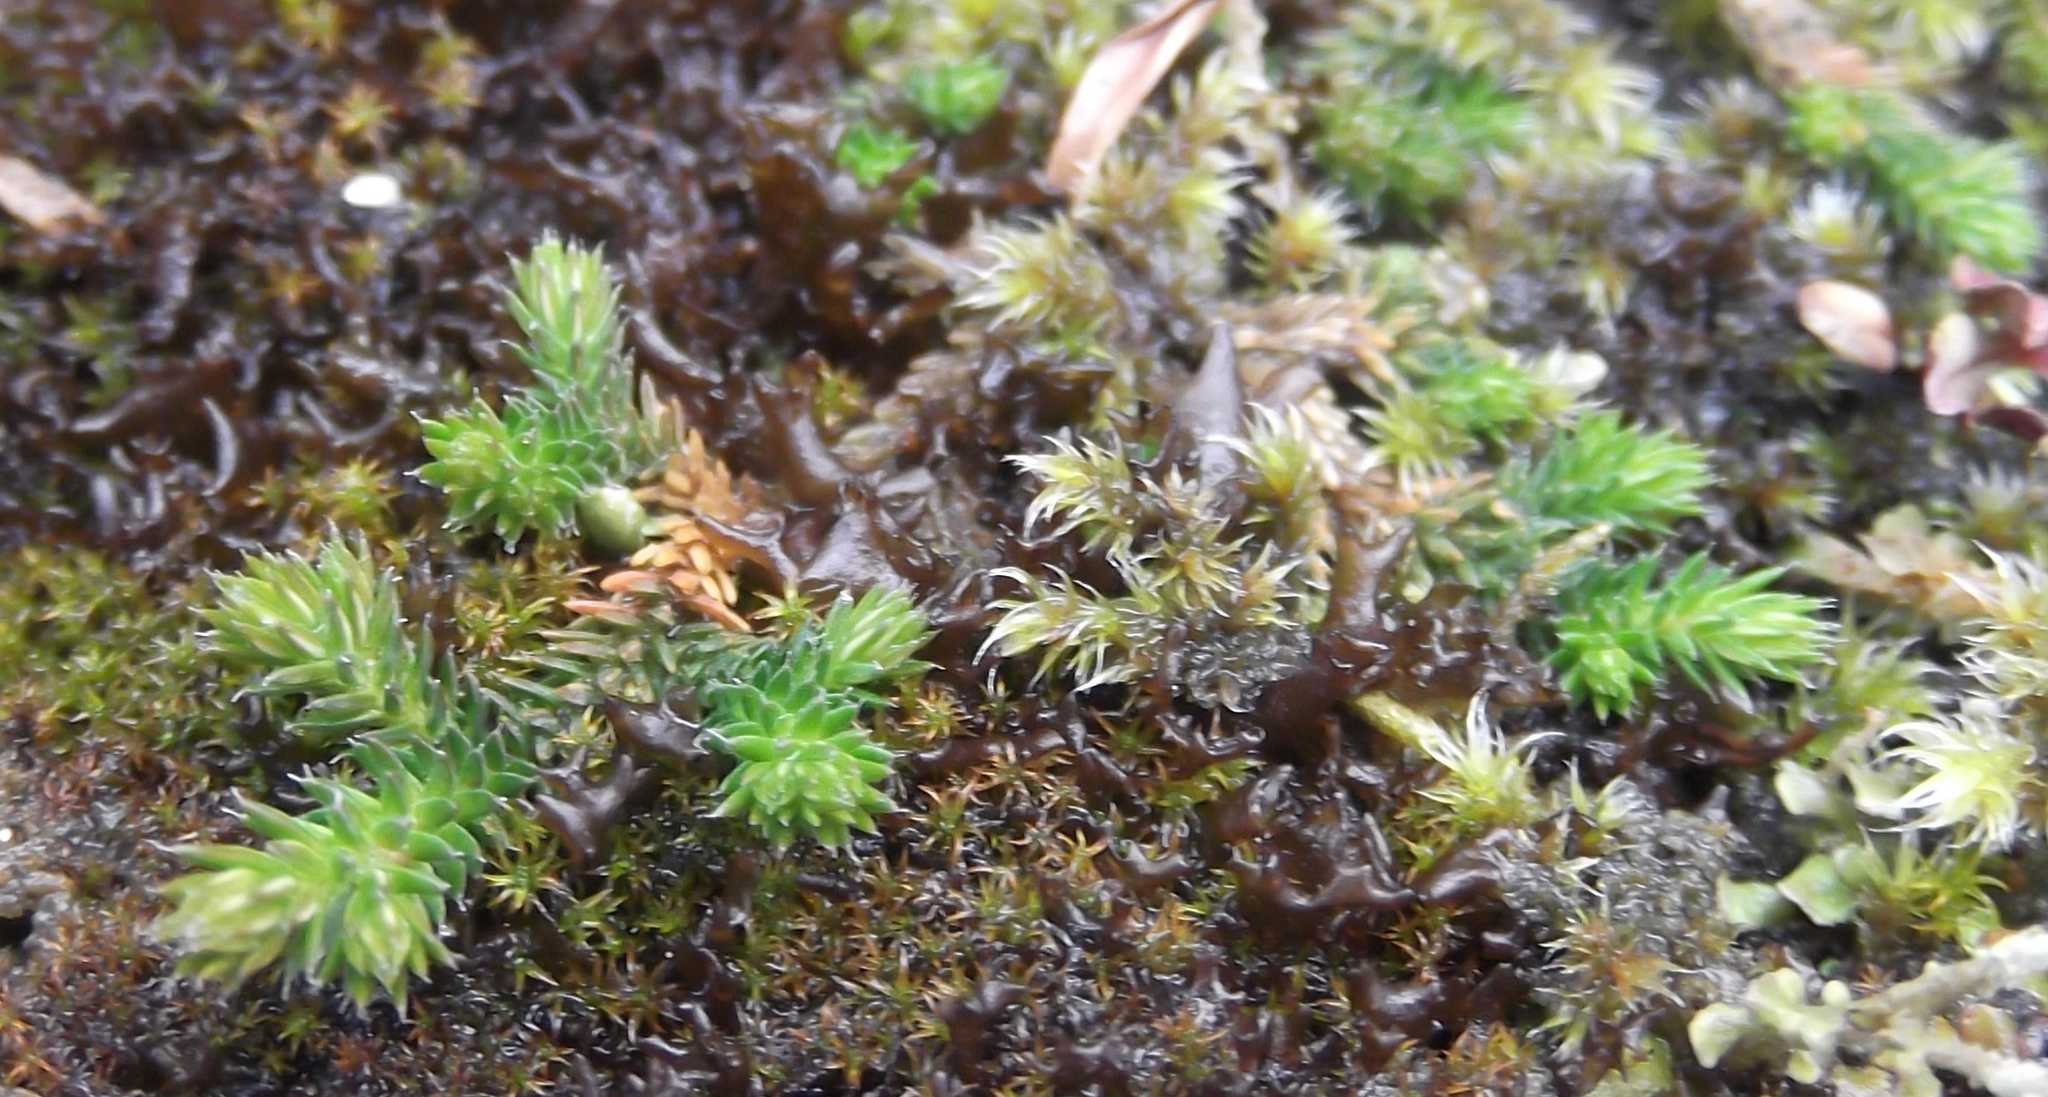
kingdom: Plantae
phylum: Tracheophyta
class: Lycopodiopsida
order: Selaginellales
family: Selaginellaceae
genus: Selaginella
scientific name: Selaginella wallacei
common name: Wallace's selaginella
